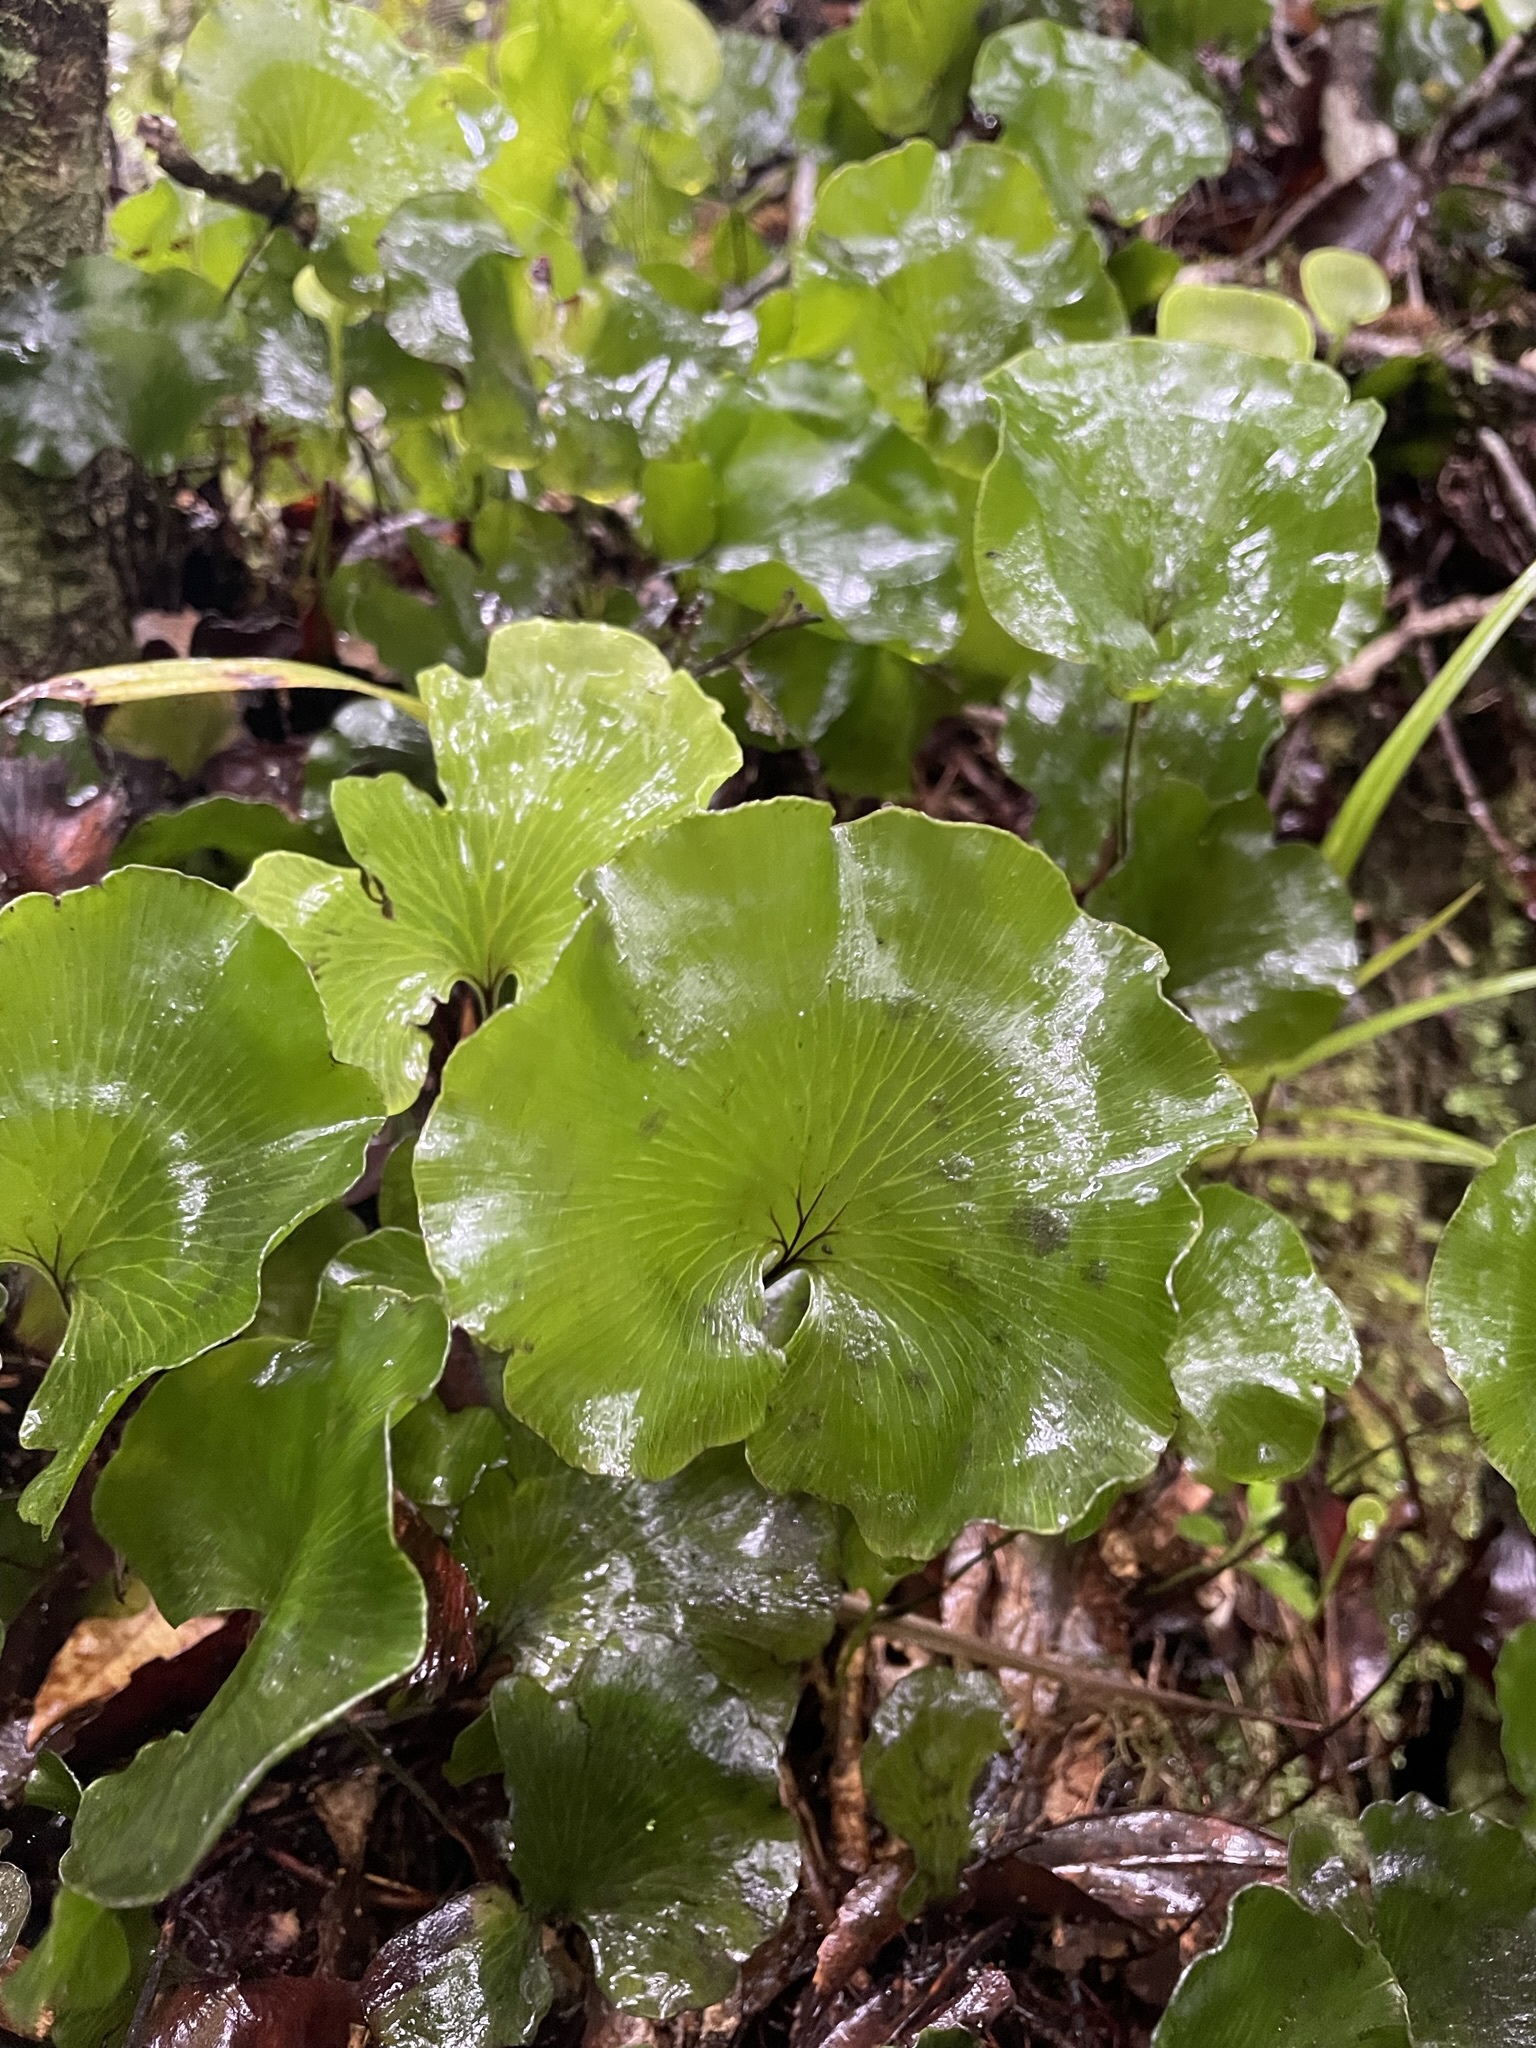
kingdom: Plantae
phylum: Tracheophyta
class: Polypodiopsida
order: Hymenophyllales
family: Hymenophyllaceae
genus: Hymenophyllum
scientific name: Hymenophyllum nephrophyllum
